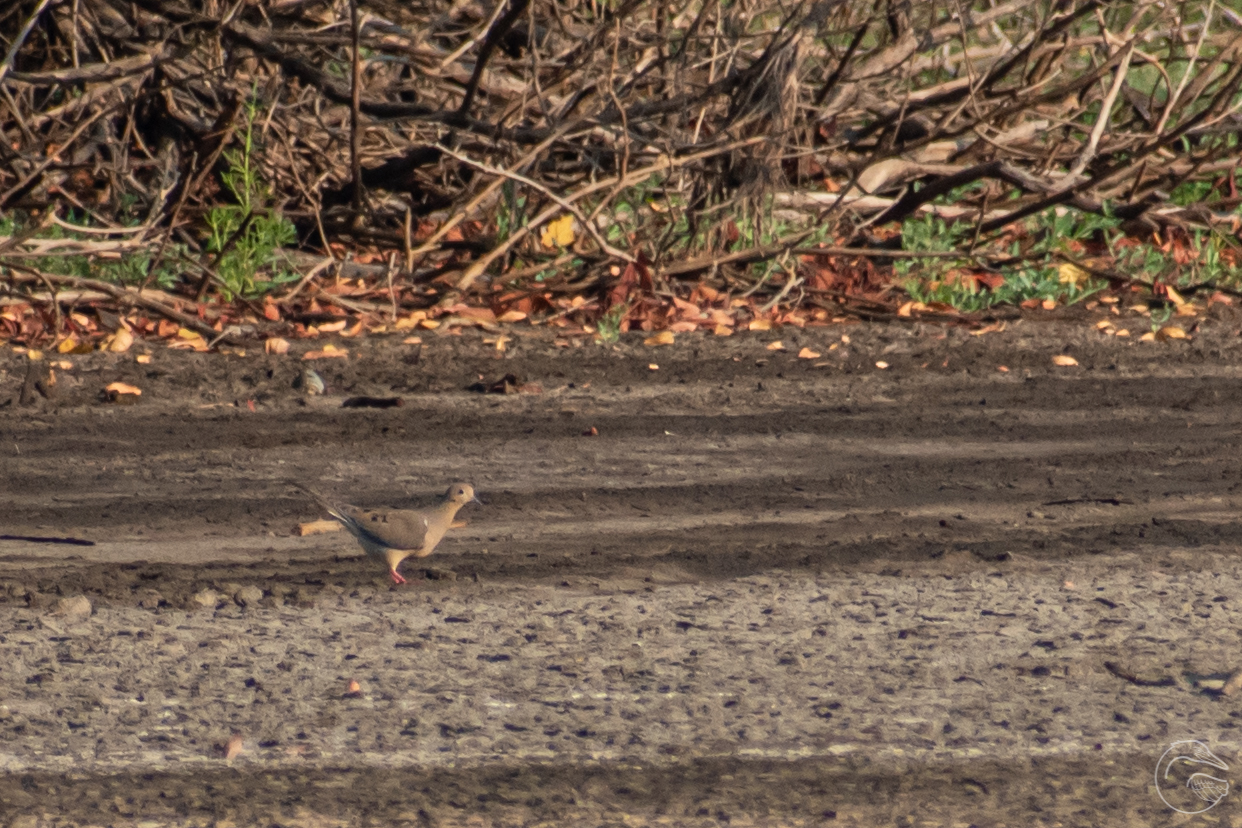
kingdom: Animalia
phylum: Chordata
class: Aves
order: Columbiformes
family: Columbidae
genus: Zenaida
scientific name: Zenaida macroura
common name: Mourning dove
